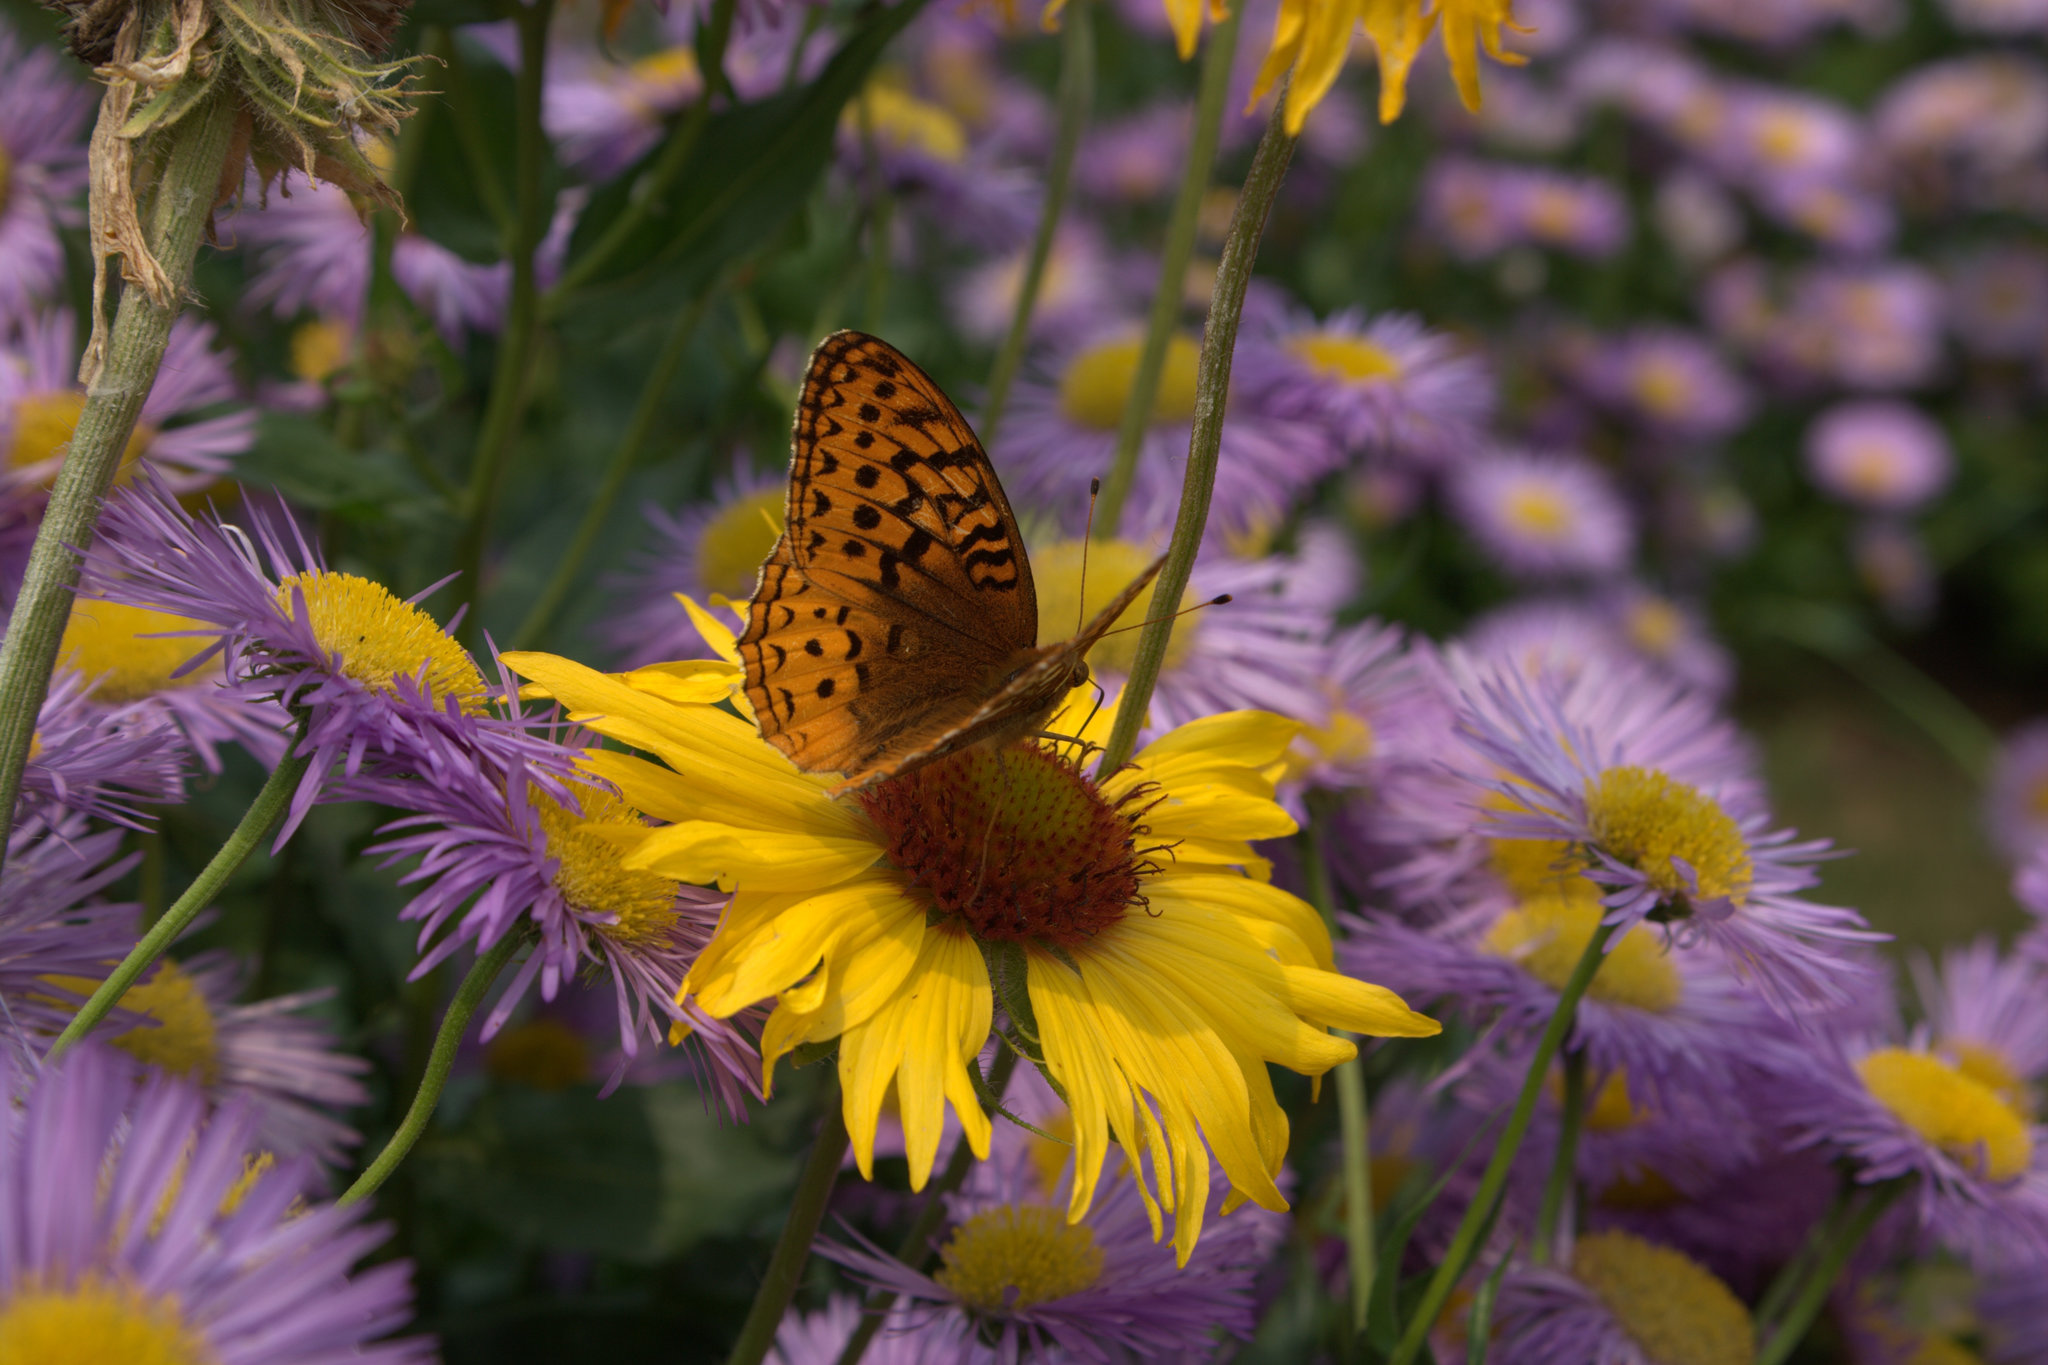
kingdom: Animalia
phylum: Arthropoda
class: Insecta
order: Lepidoptera
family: Nymphalidae
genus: Speyeria
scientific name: Speyeria cybele
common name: Great spangled fritillary
